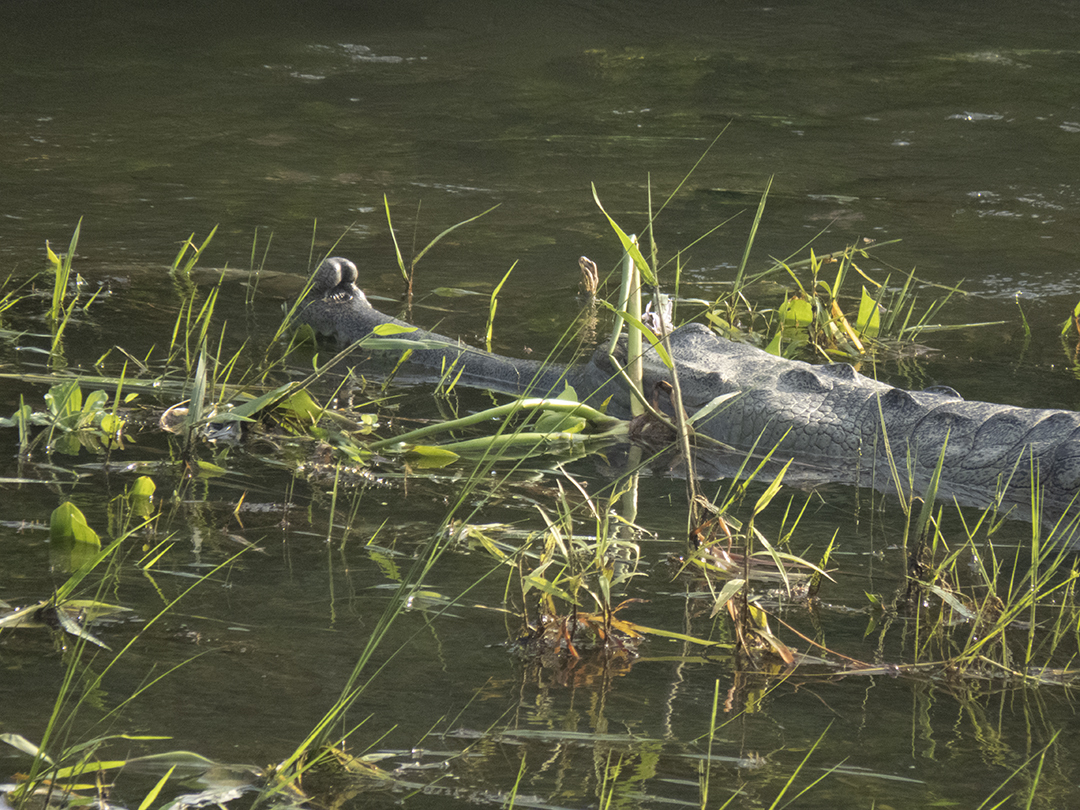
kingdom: Animalia
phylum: Chordata
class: Crocodylia
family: Gavialidae
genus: Gavialis
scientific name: Gavialis gangeticus
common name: Gharial
